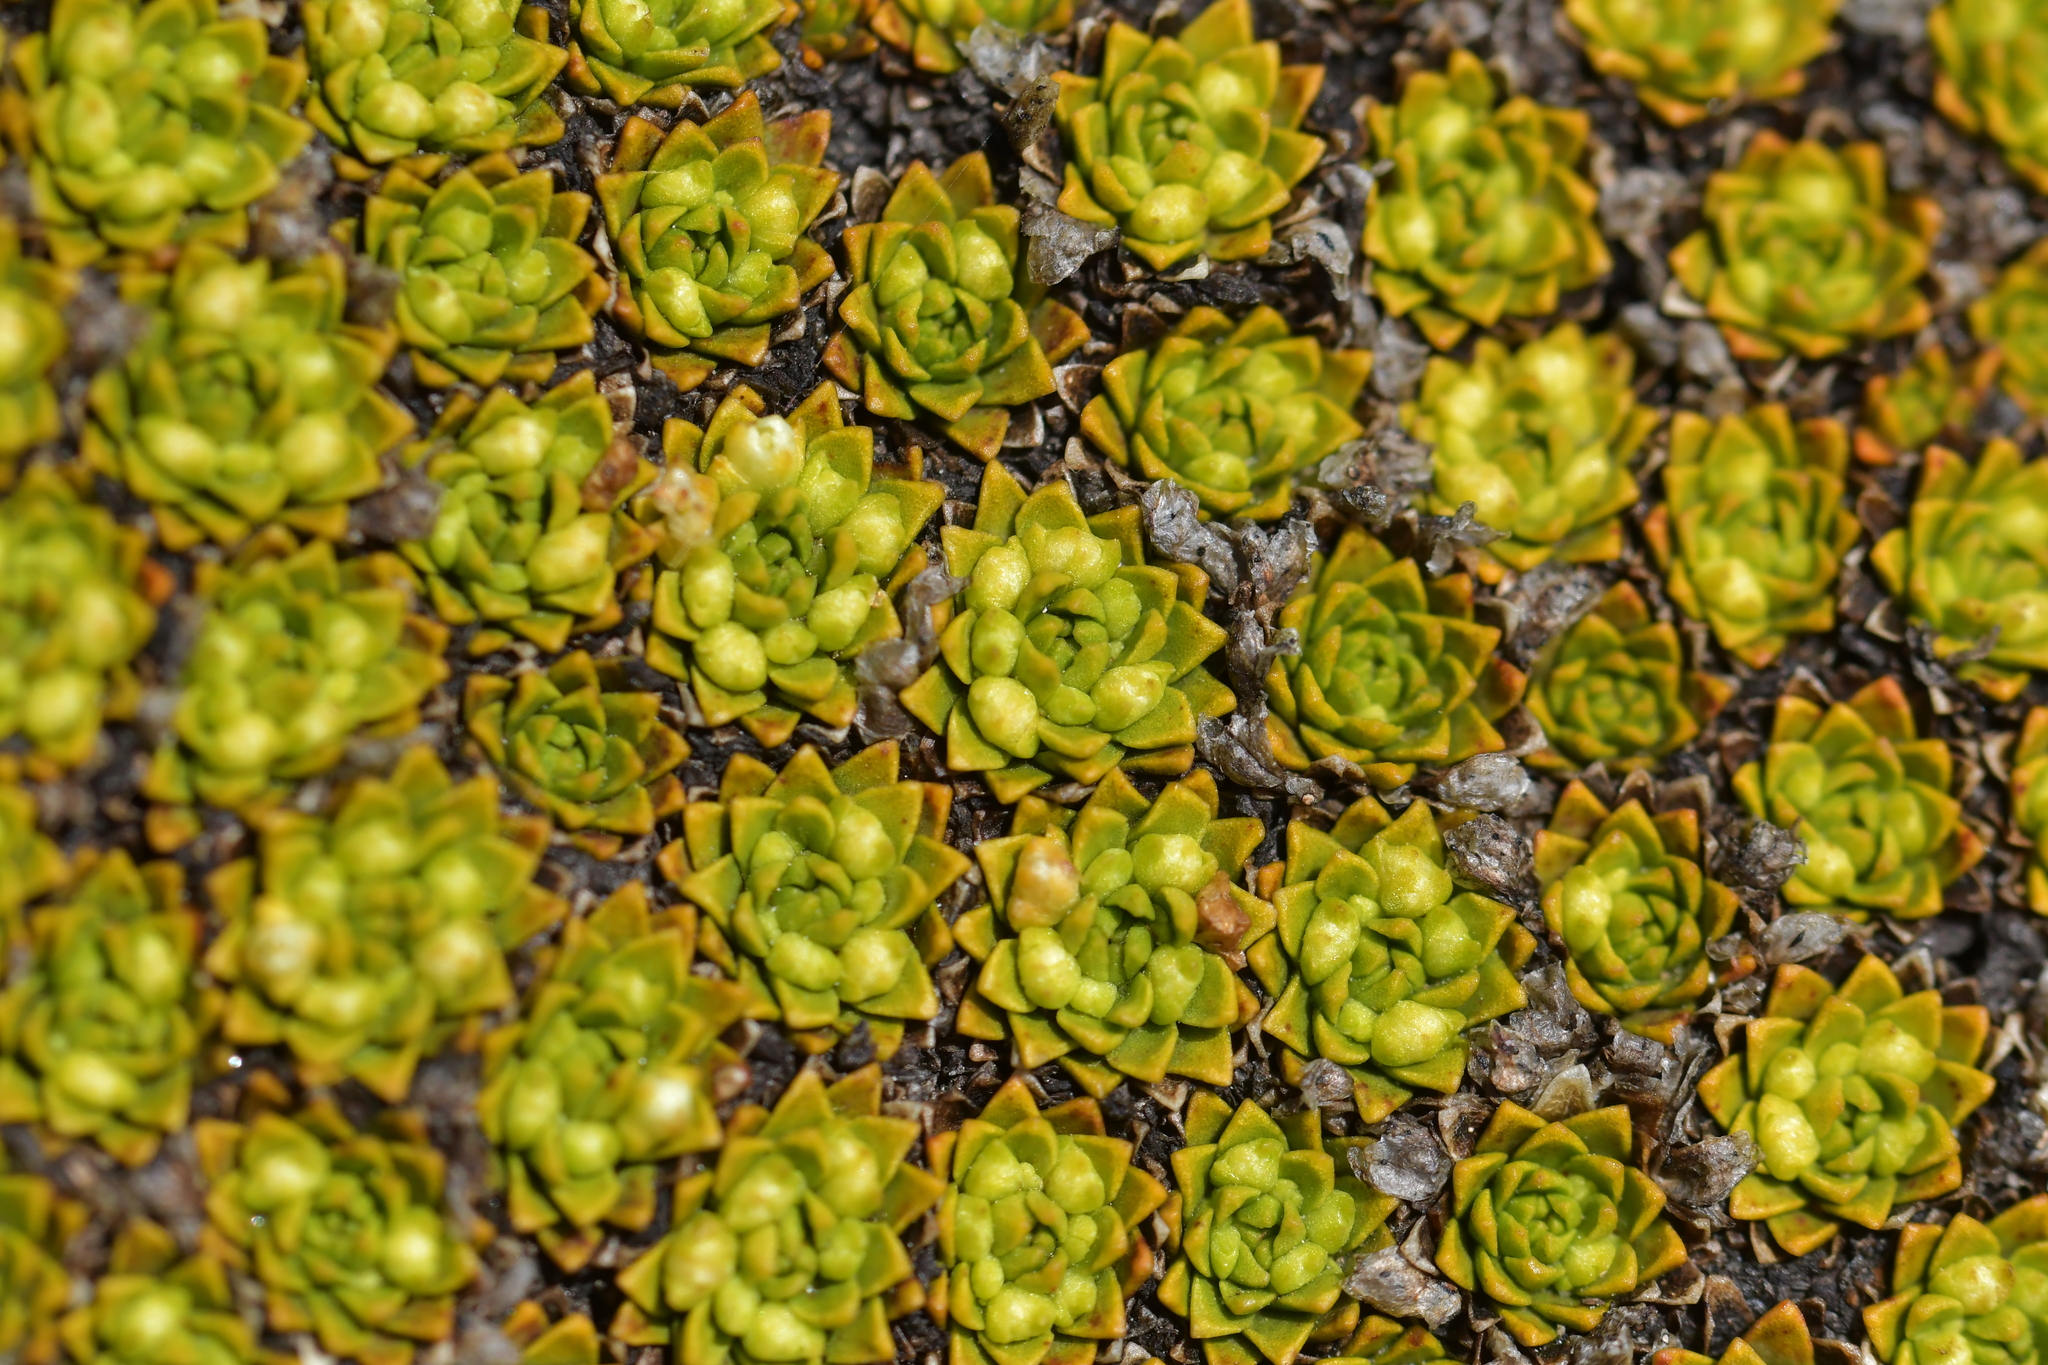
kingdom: Plantae
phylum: Tracheophyta
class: Magnoliopsida
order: Caryophyllales
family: Montiaceae
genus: Hectorella
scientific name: Hectorella caespitosa
